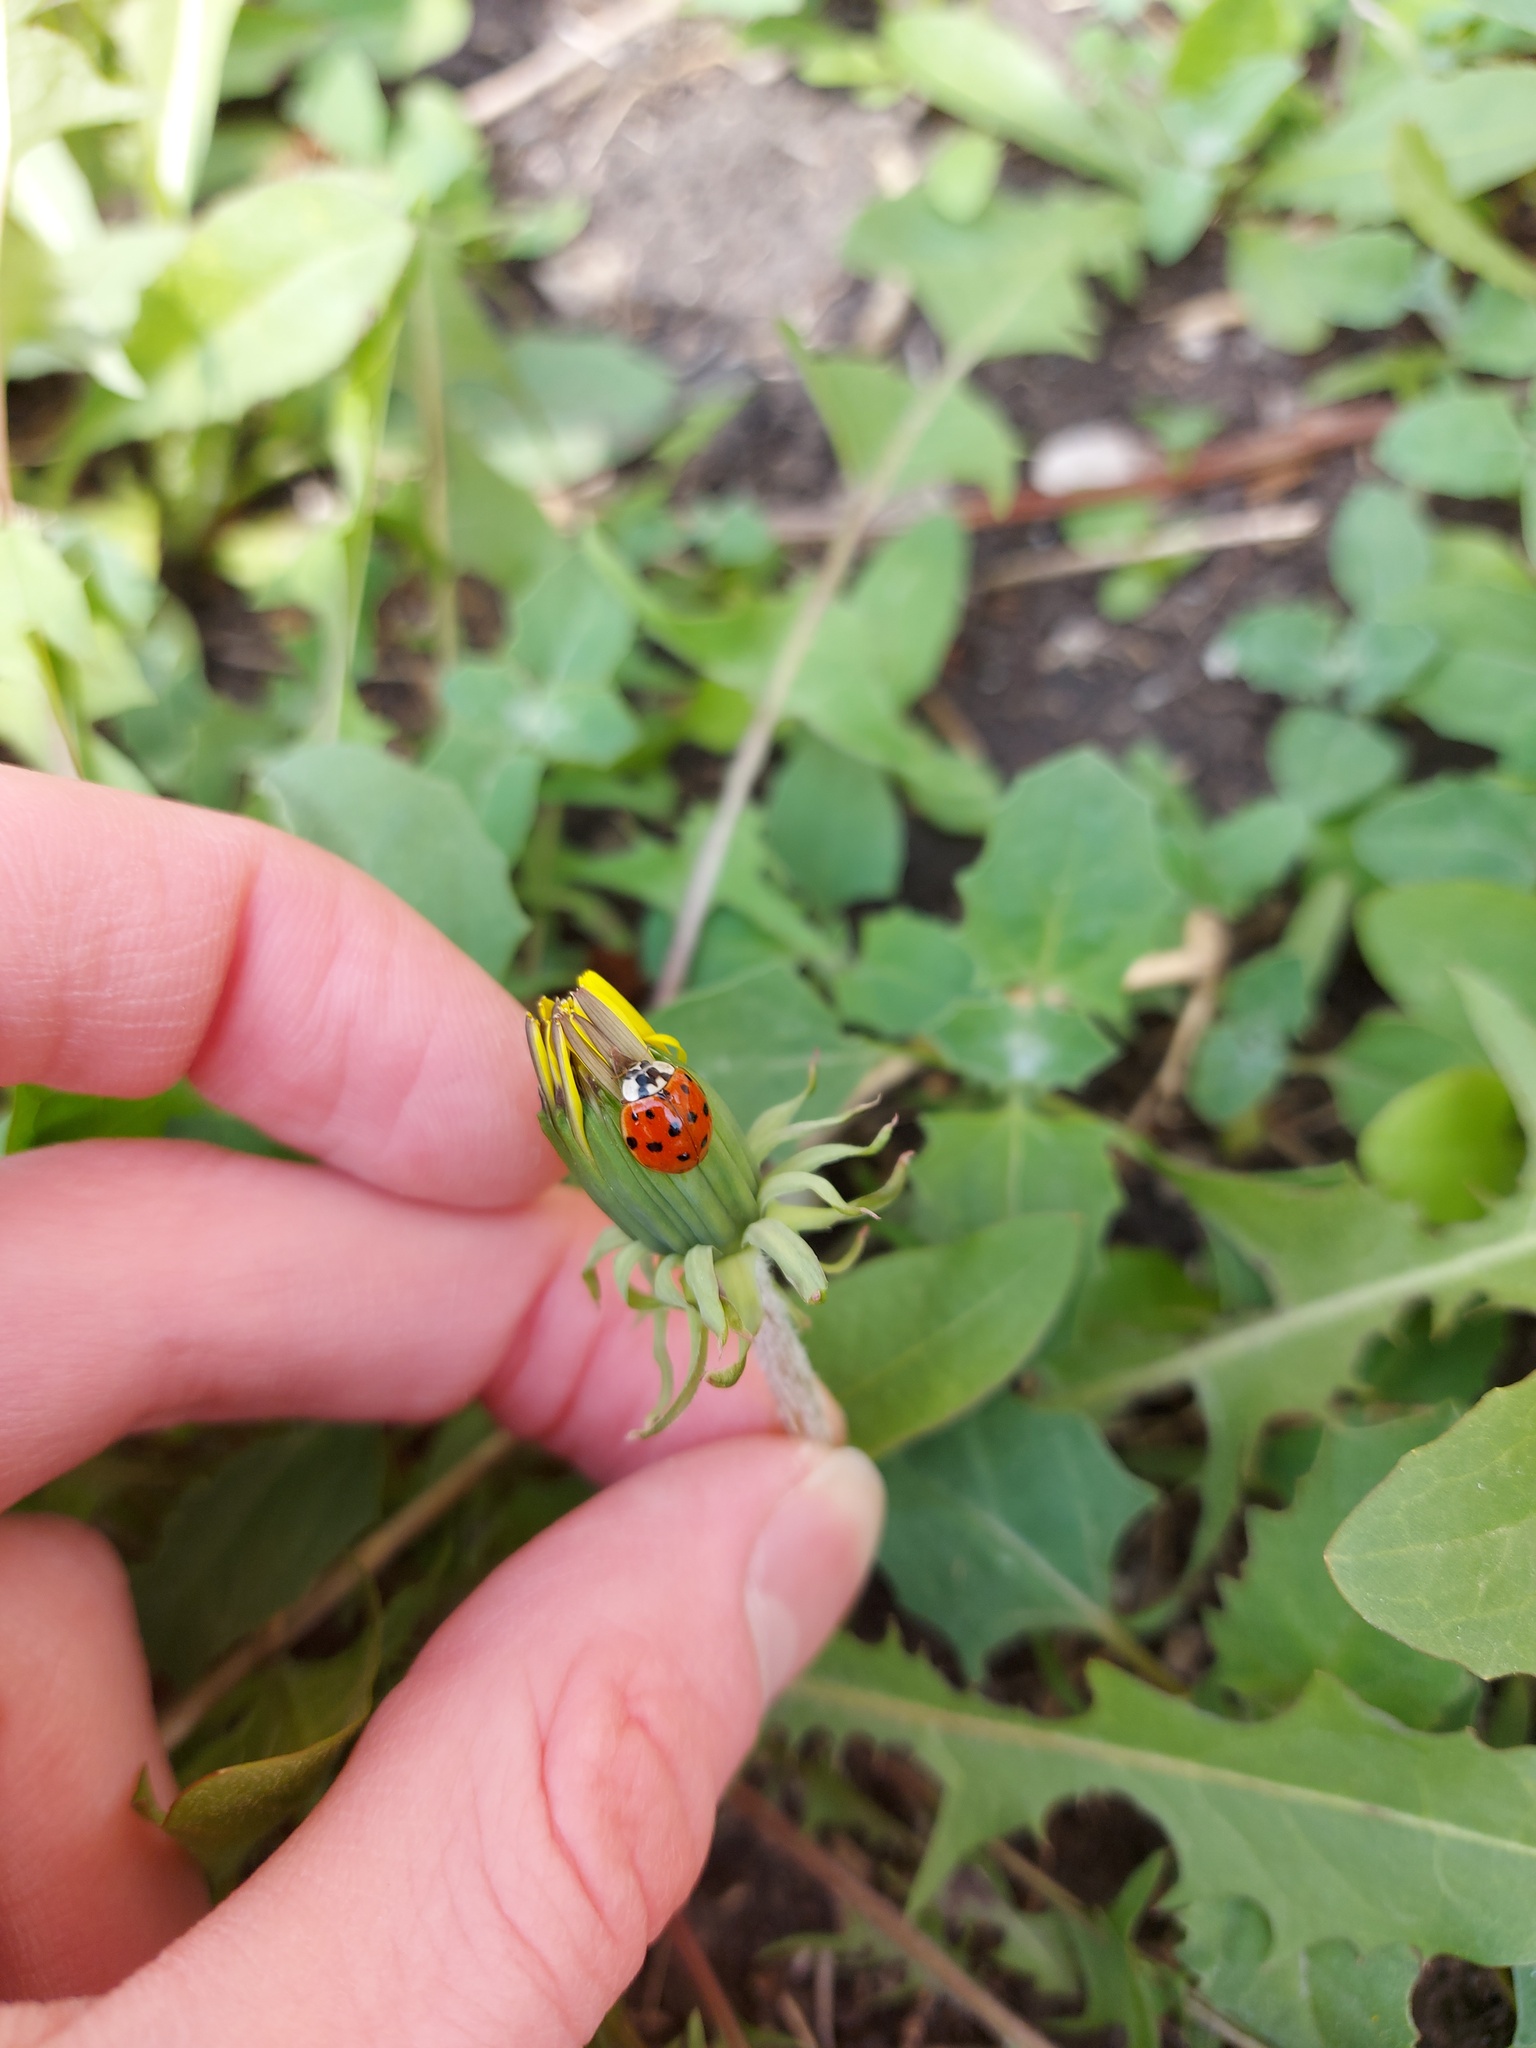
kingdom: Animalia
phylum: Arthropoda
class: Insecta
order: Coleoptera
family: Coccinellidae
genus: Harmonia
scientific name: Harmonia axyridis
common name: Harlequin ladybird
